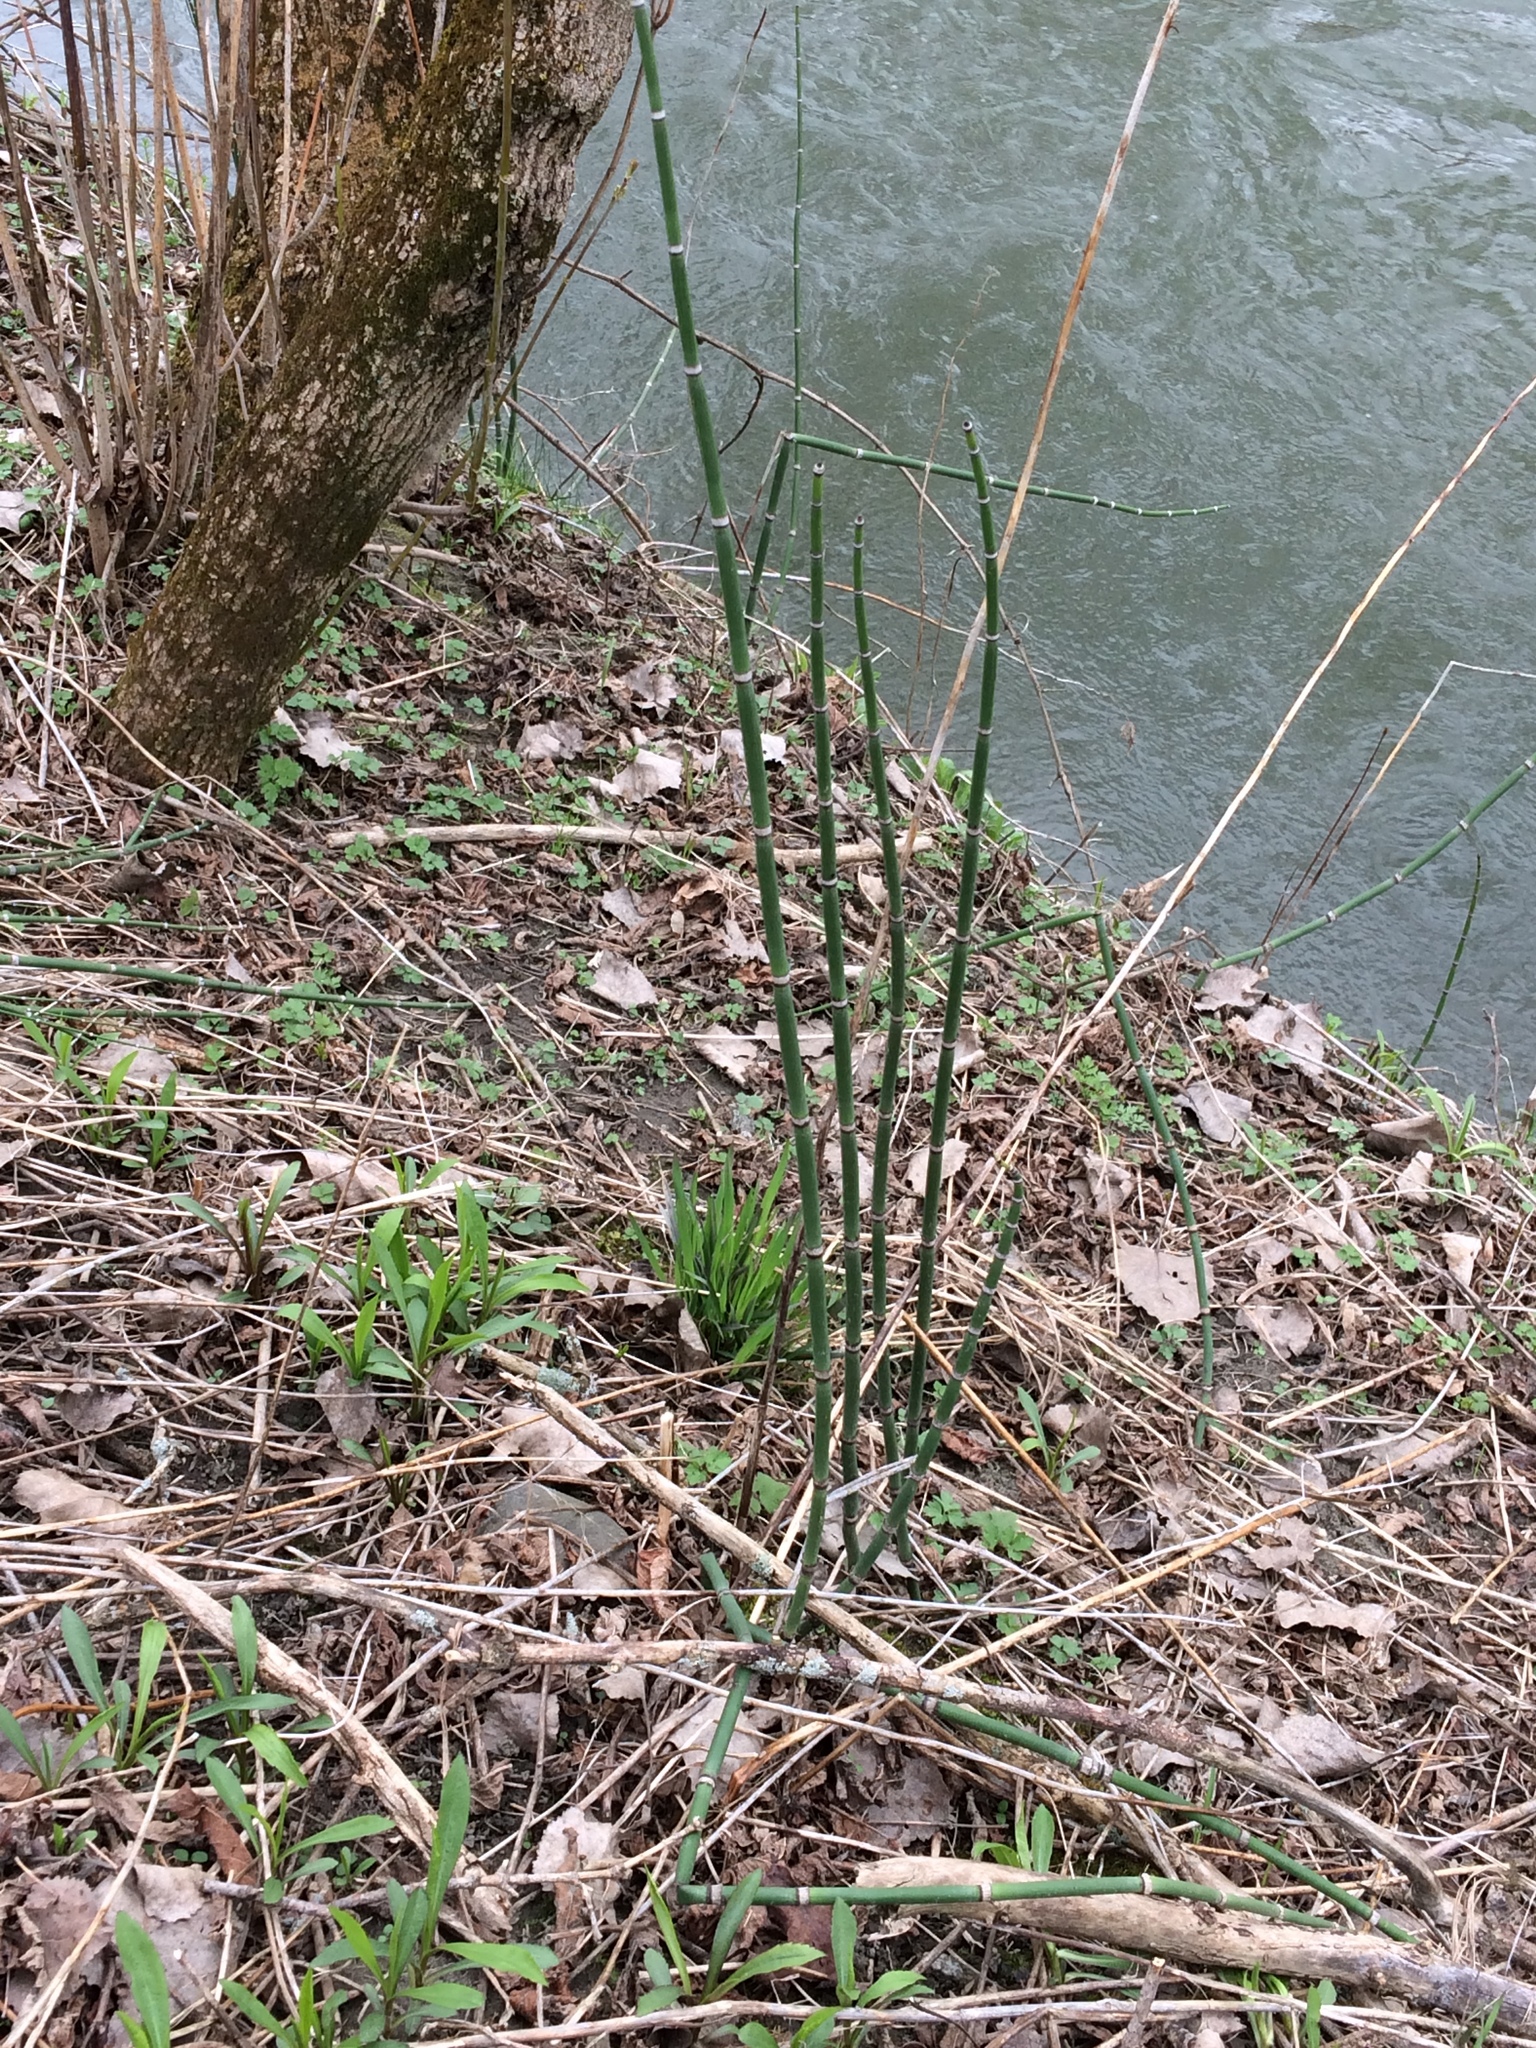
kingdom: Plantae
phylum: Tracheophyta
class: Polypodiopsida
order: Equisetales
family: Equisetaceae
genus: Equisetum
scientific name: Equisetum hyemale
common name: Rough horsetail
